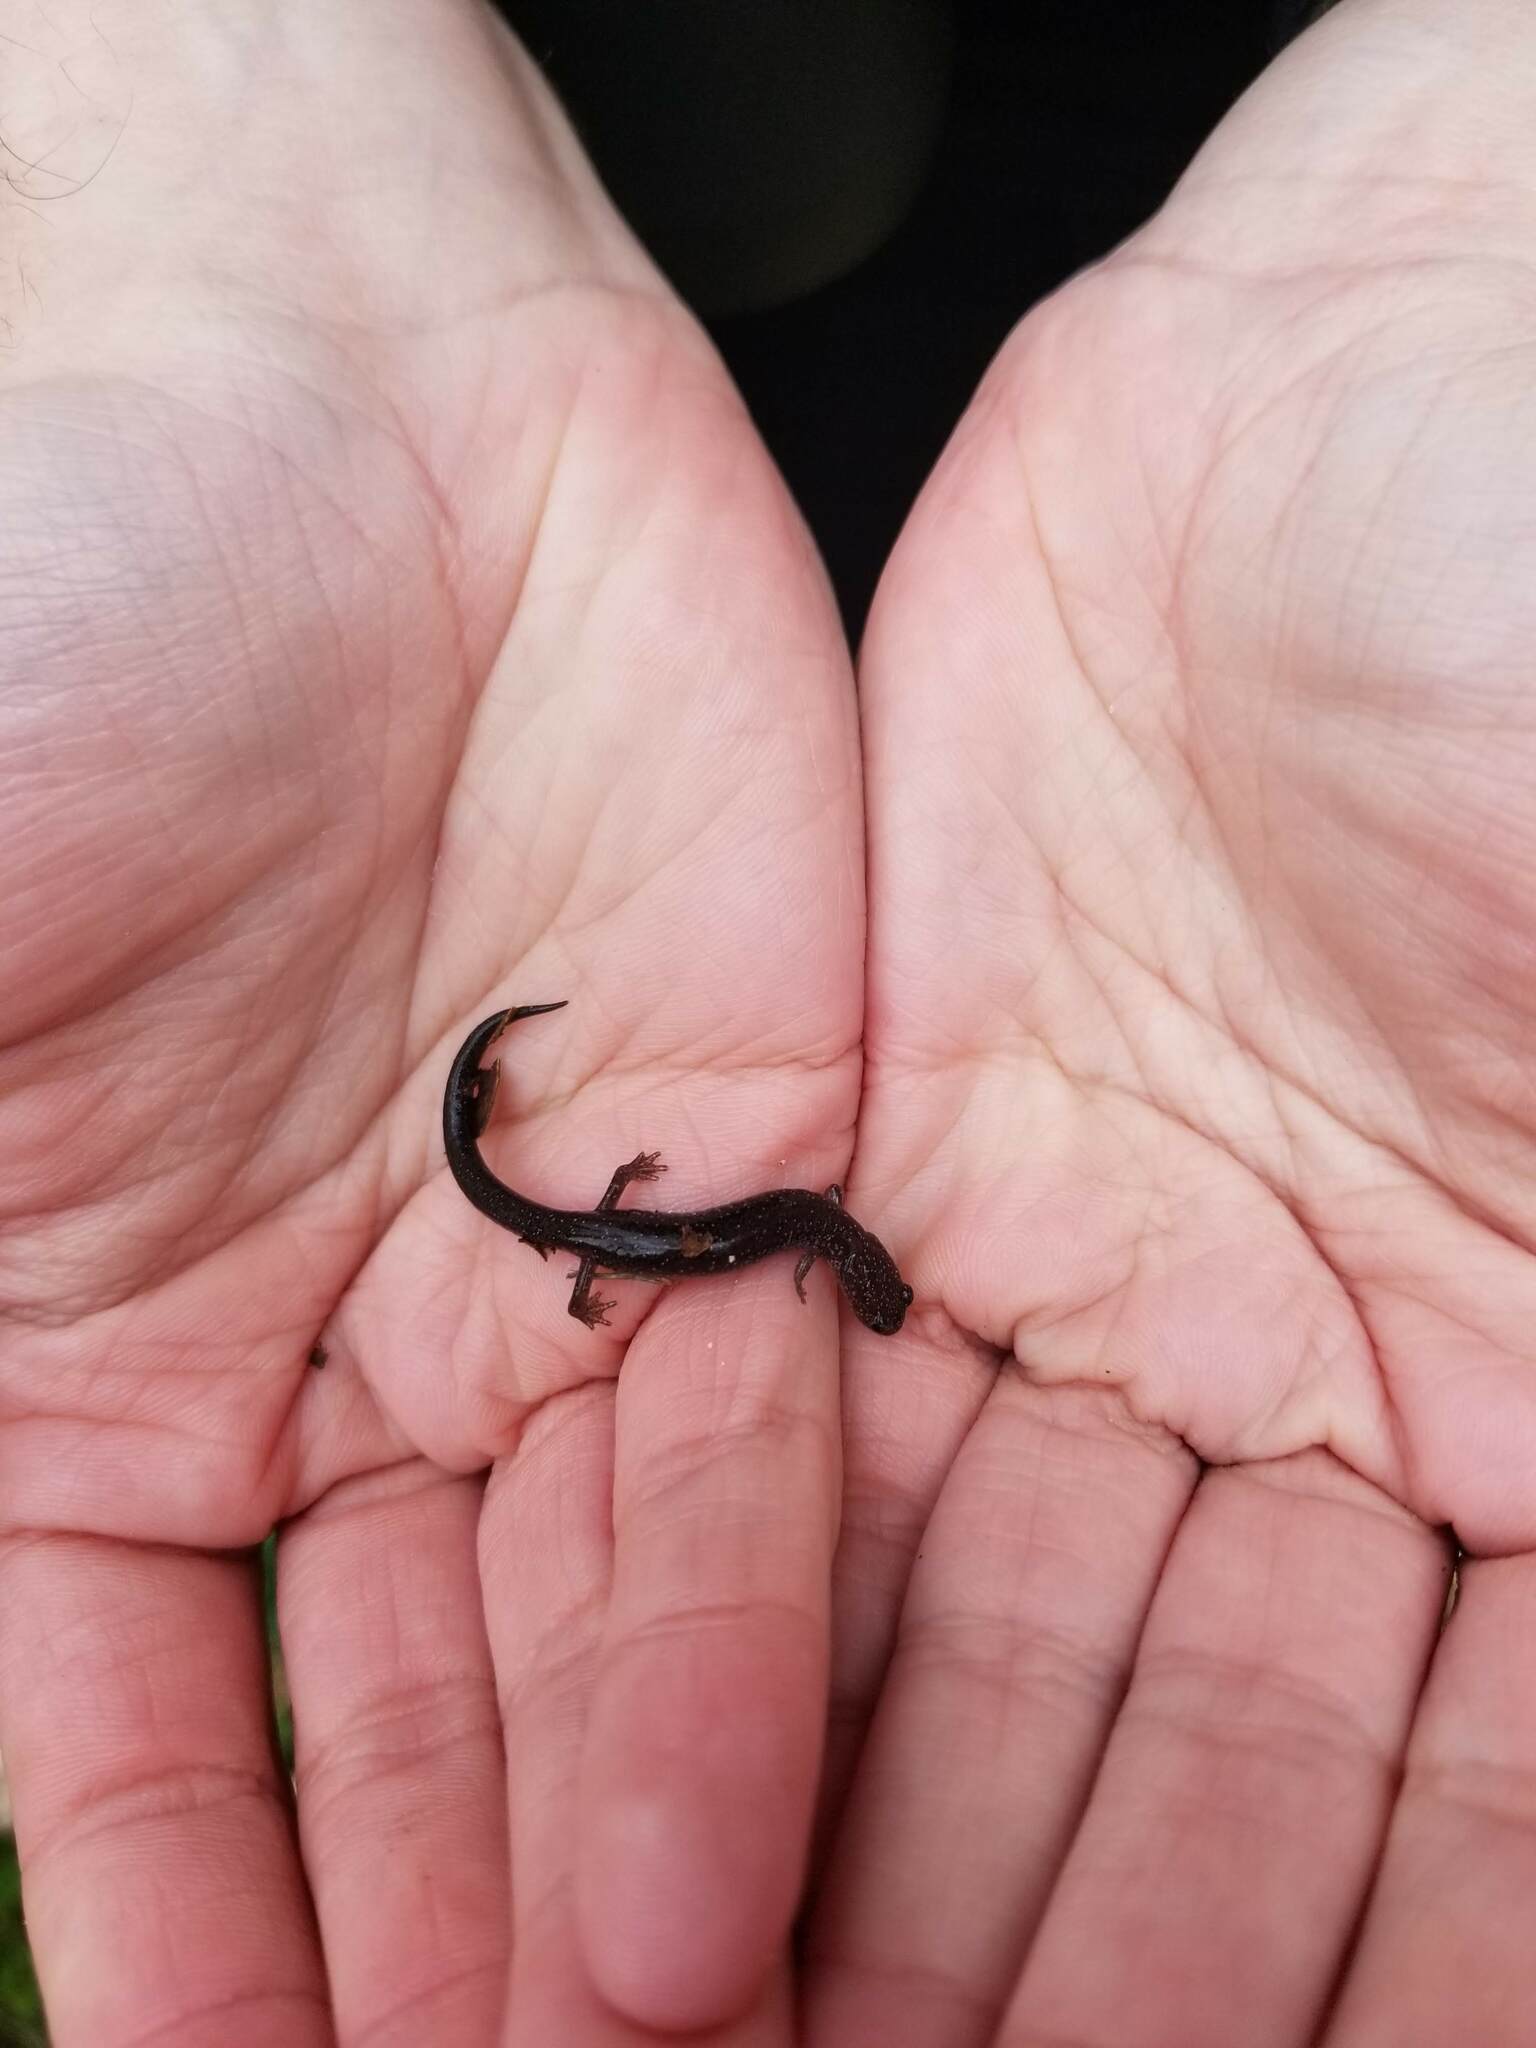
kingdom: Animalia
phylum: Chordata
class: Amphibia
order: Caudata
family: Plethodontidae
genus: Plethodon
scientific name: Plethodon cinereus
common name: Redback salamander
